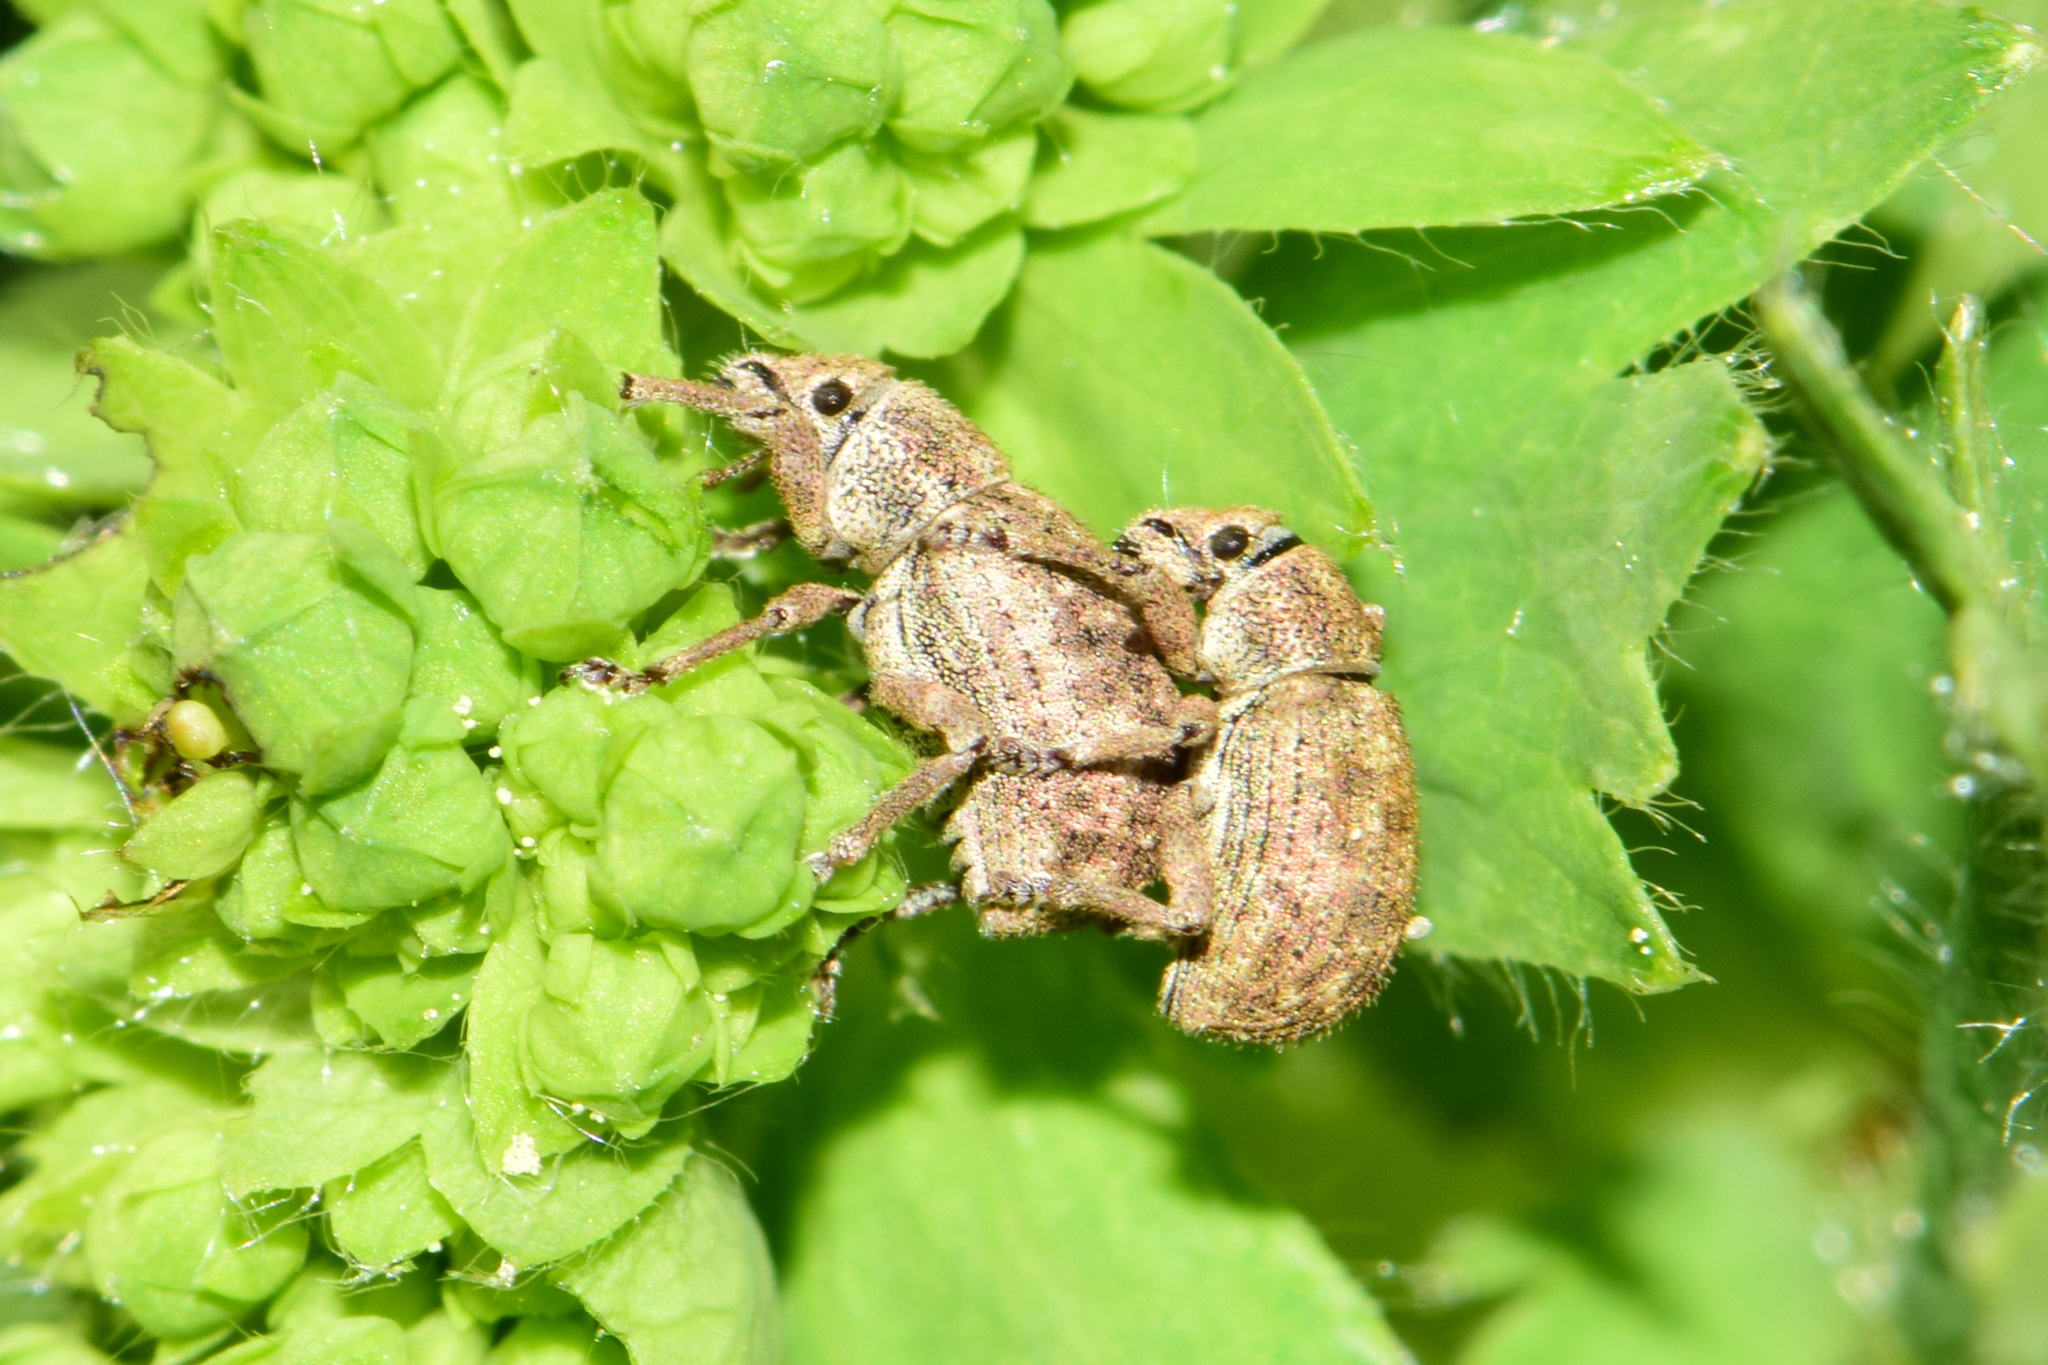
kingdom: Animalia
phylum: Arthropoda
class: Insecta
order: Coleoptera
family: Curculionidae
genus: Strophosoma
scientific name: Strophosoma capitatum
